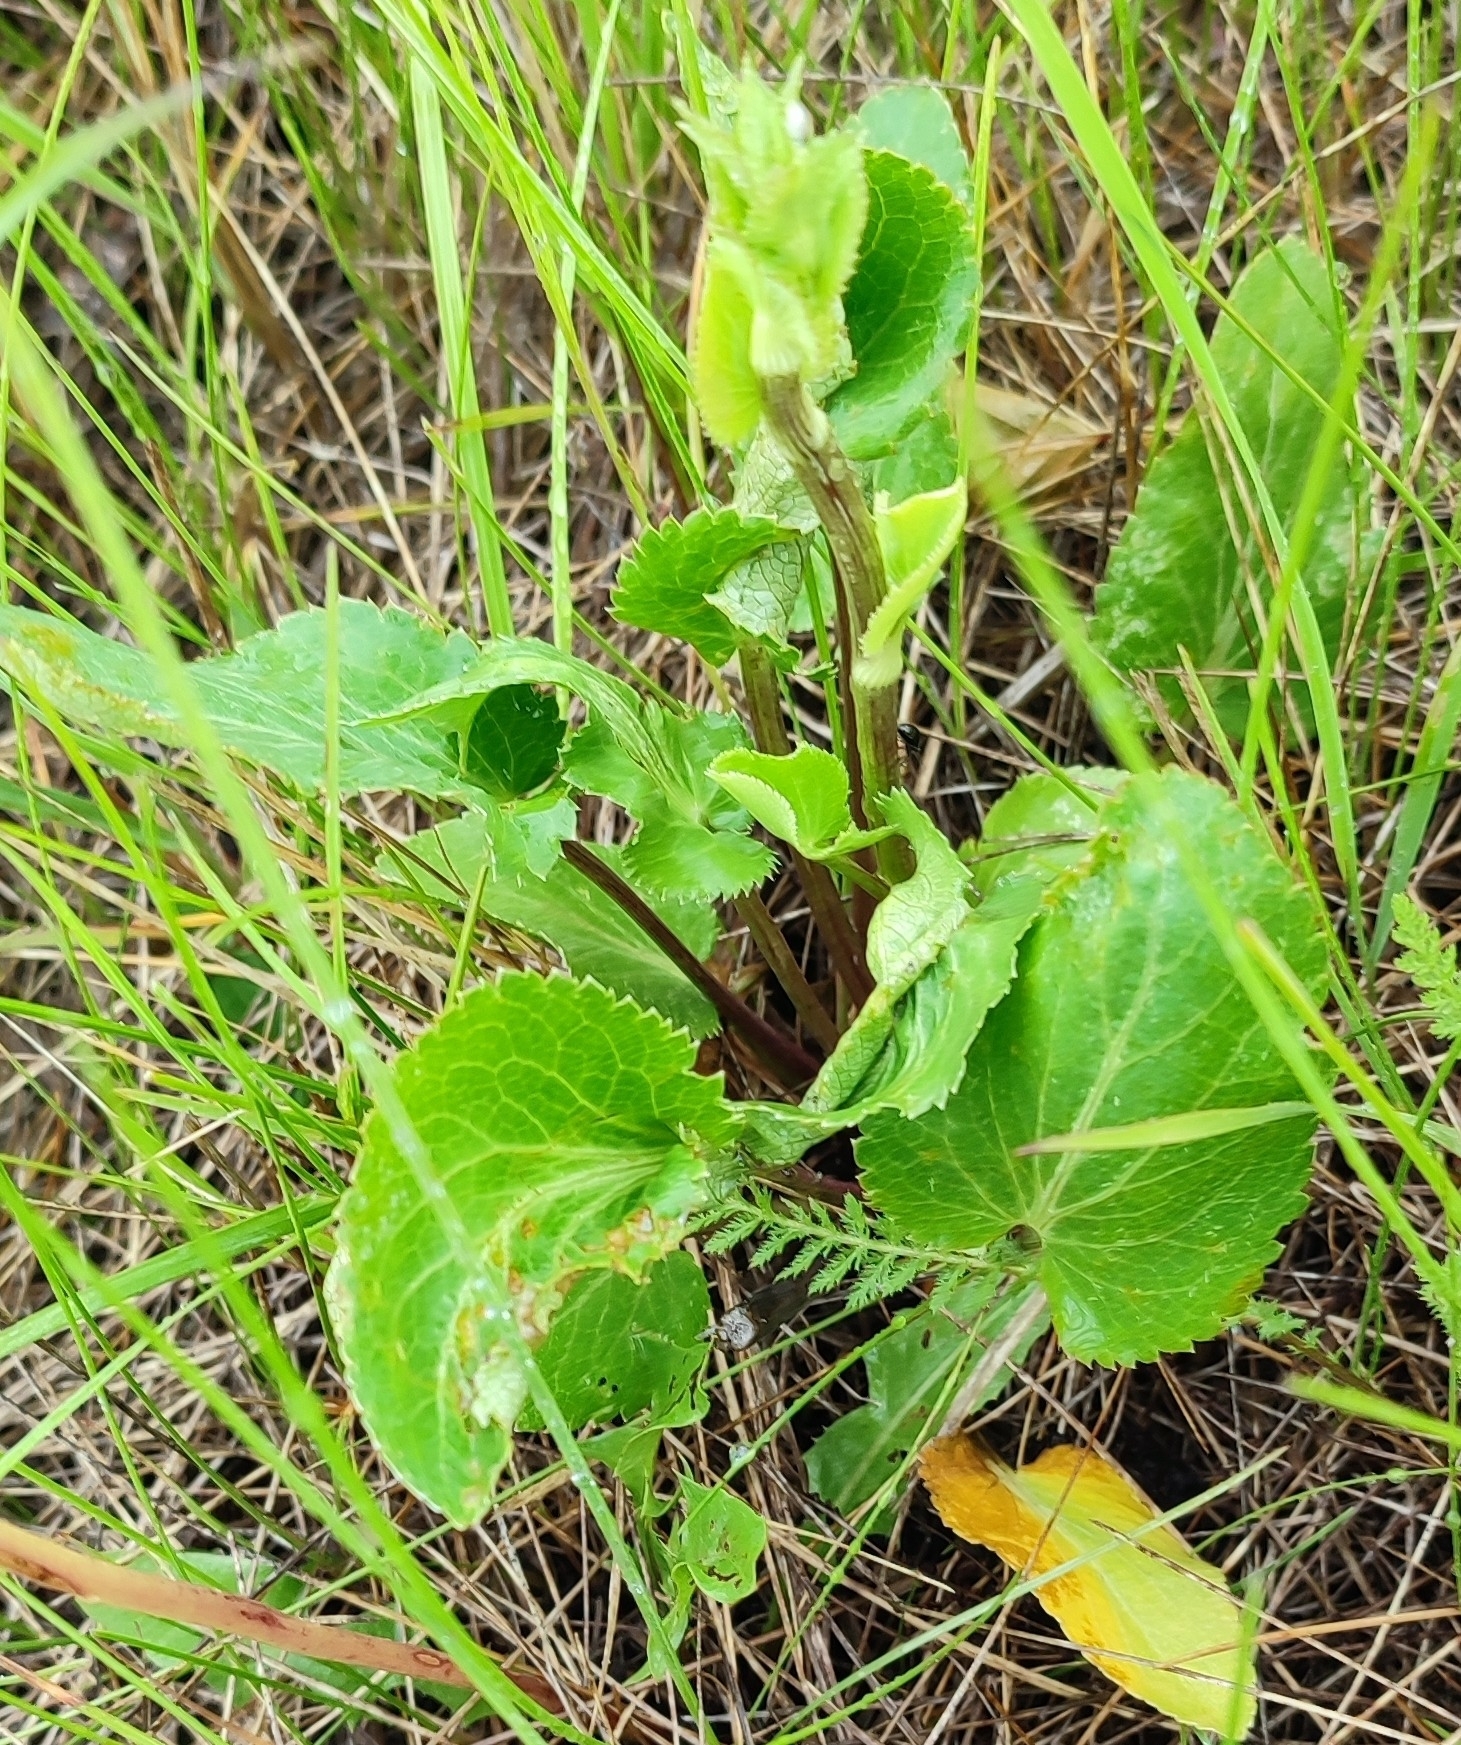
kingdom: Plantae
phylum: Tracheophyta
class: Magnoliopsida
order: Apiales
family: Apiaceae
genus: Eryngium
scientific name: Eryngium planum
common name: Blue eryngo
